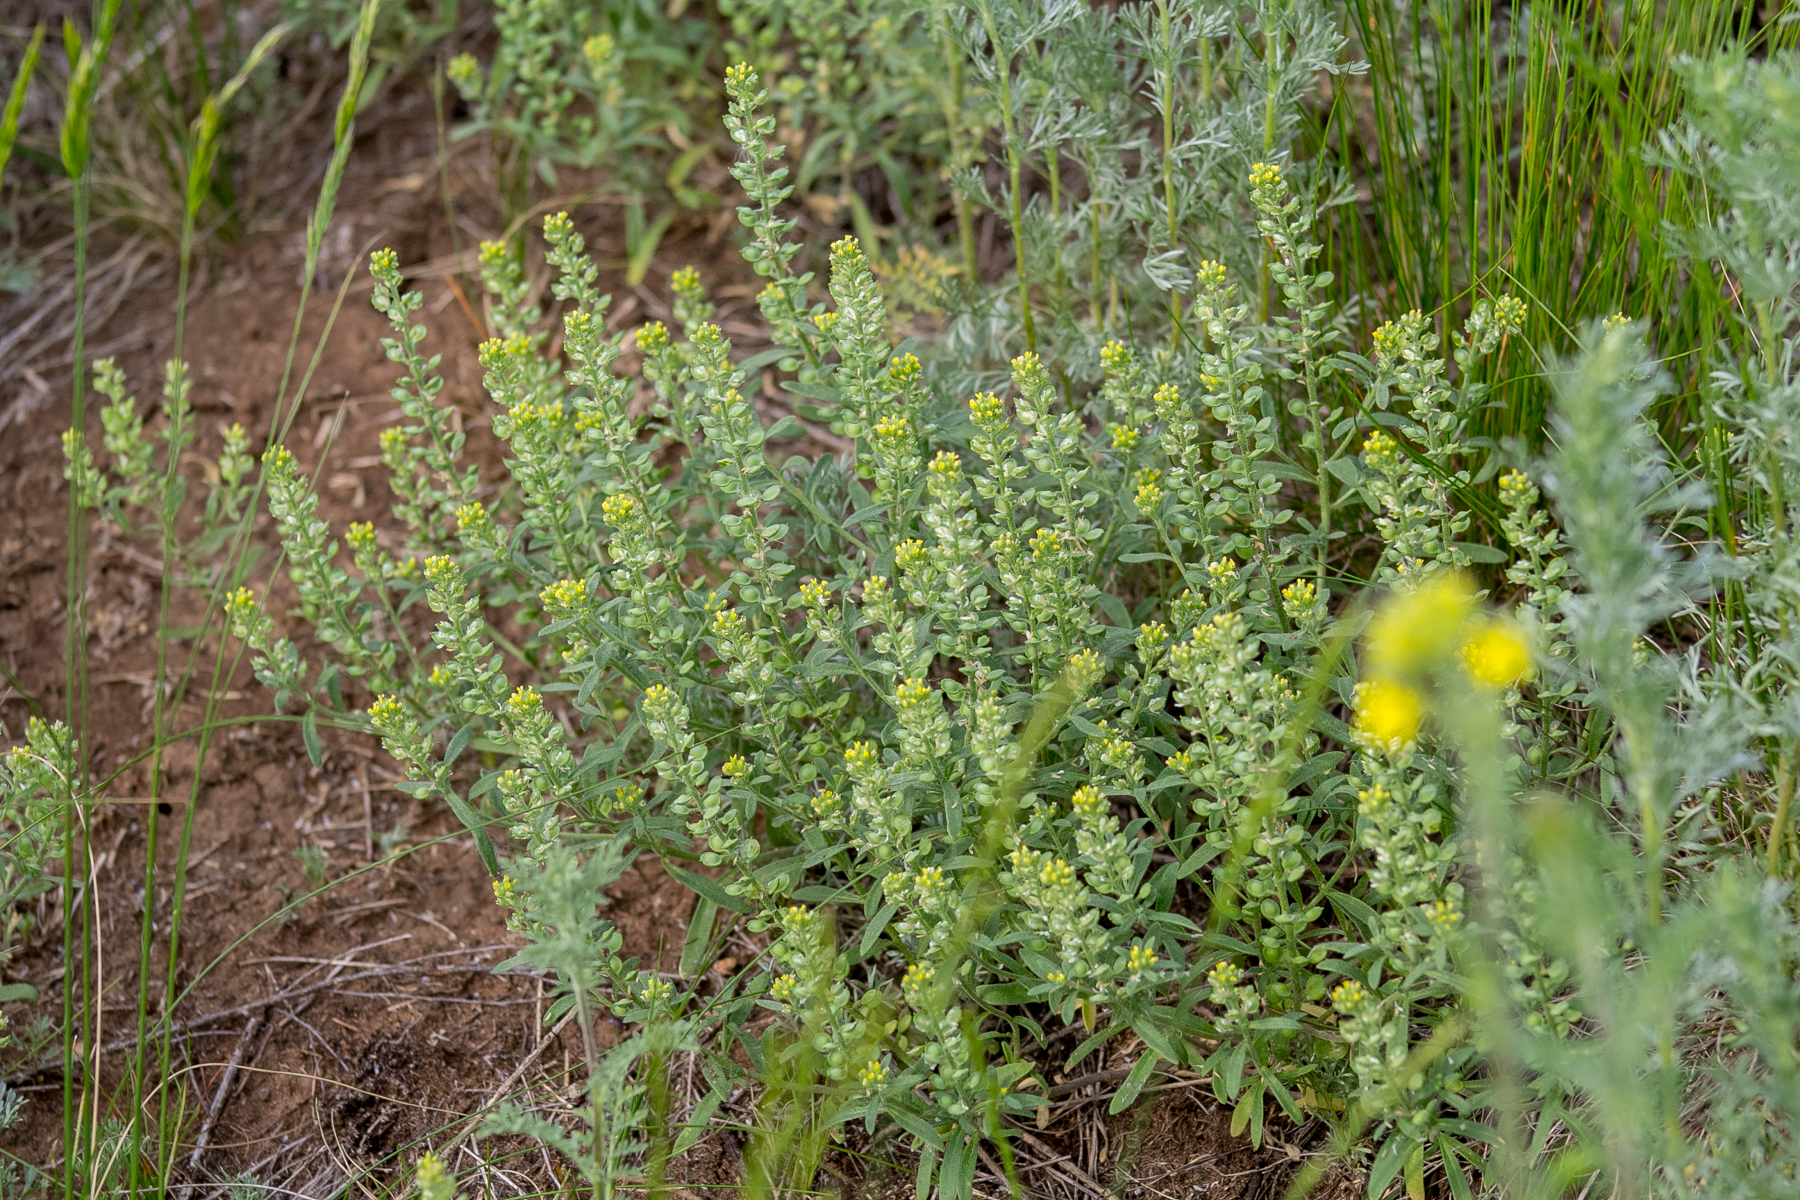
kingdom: Plantae
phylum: Tracheophyta
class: Magnoliopsida
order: Brassicales
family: Brassicaceae
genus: Alyssum
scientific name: Alyssum turkestanicum
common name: Desert alyssum
